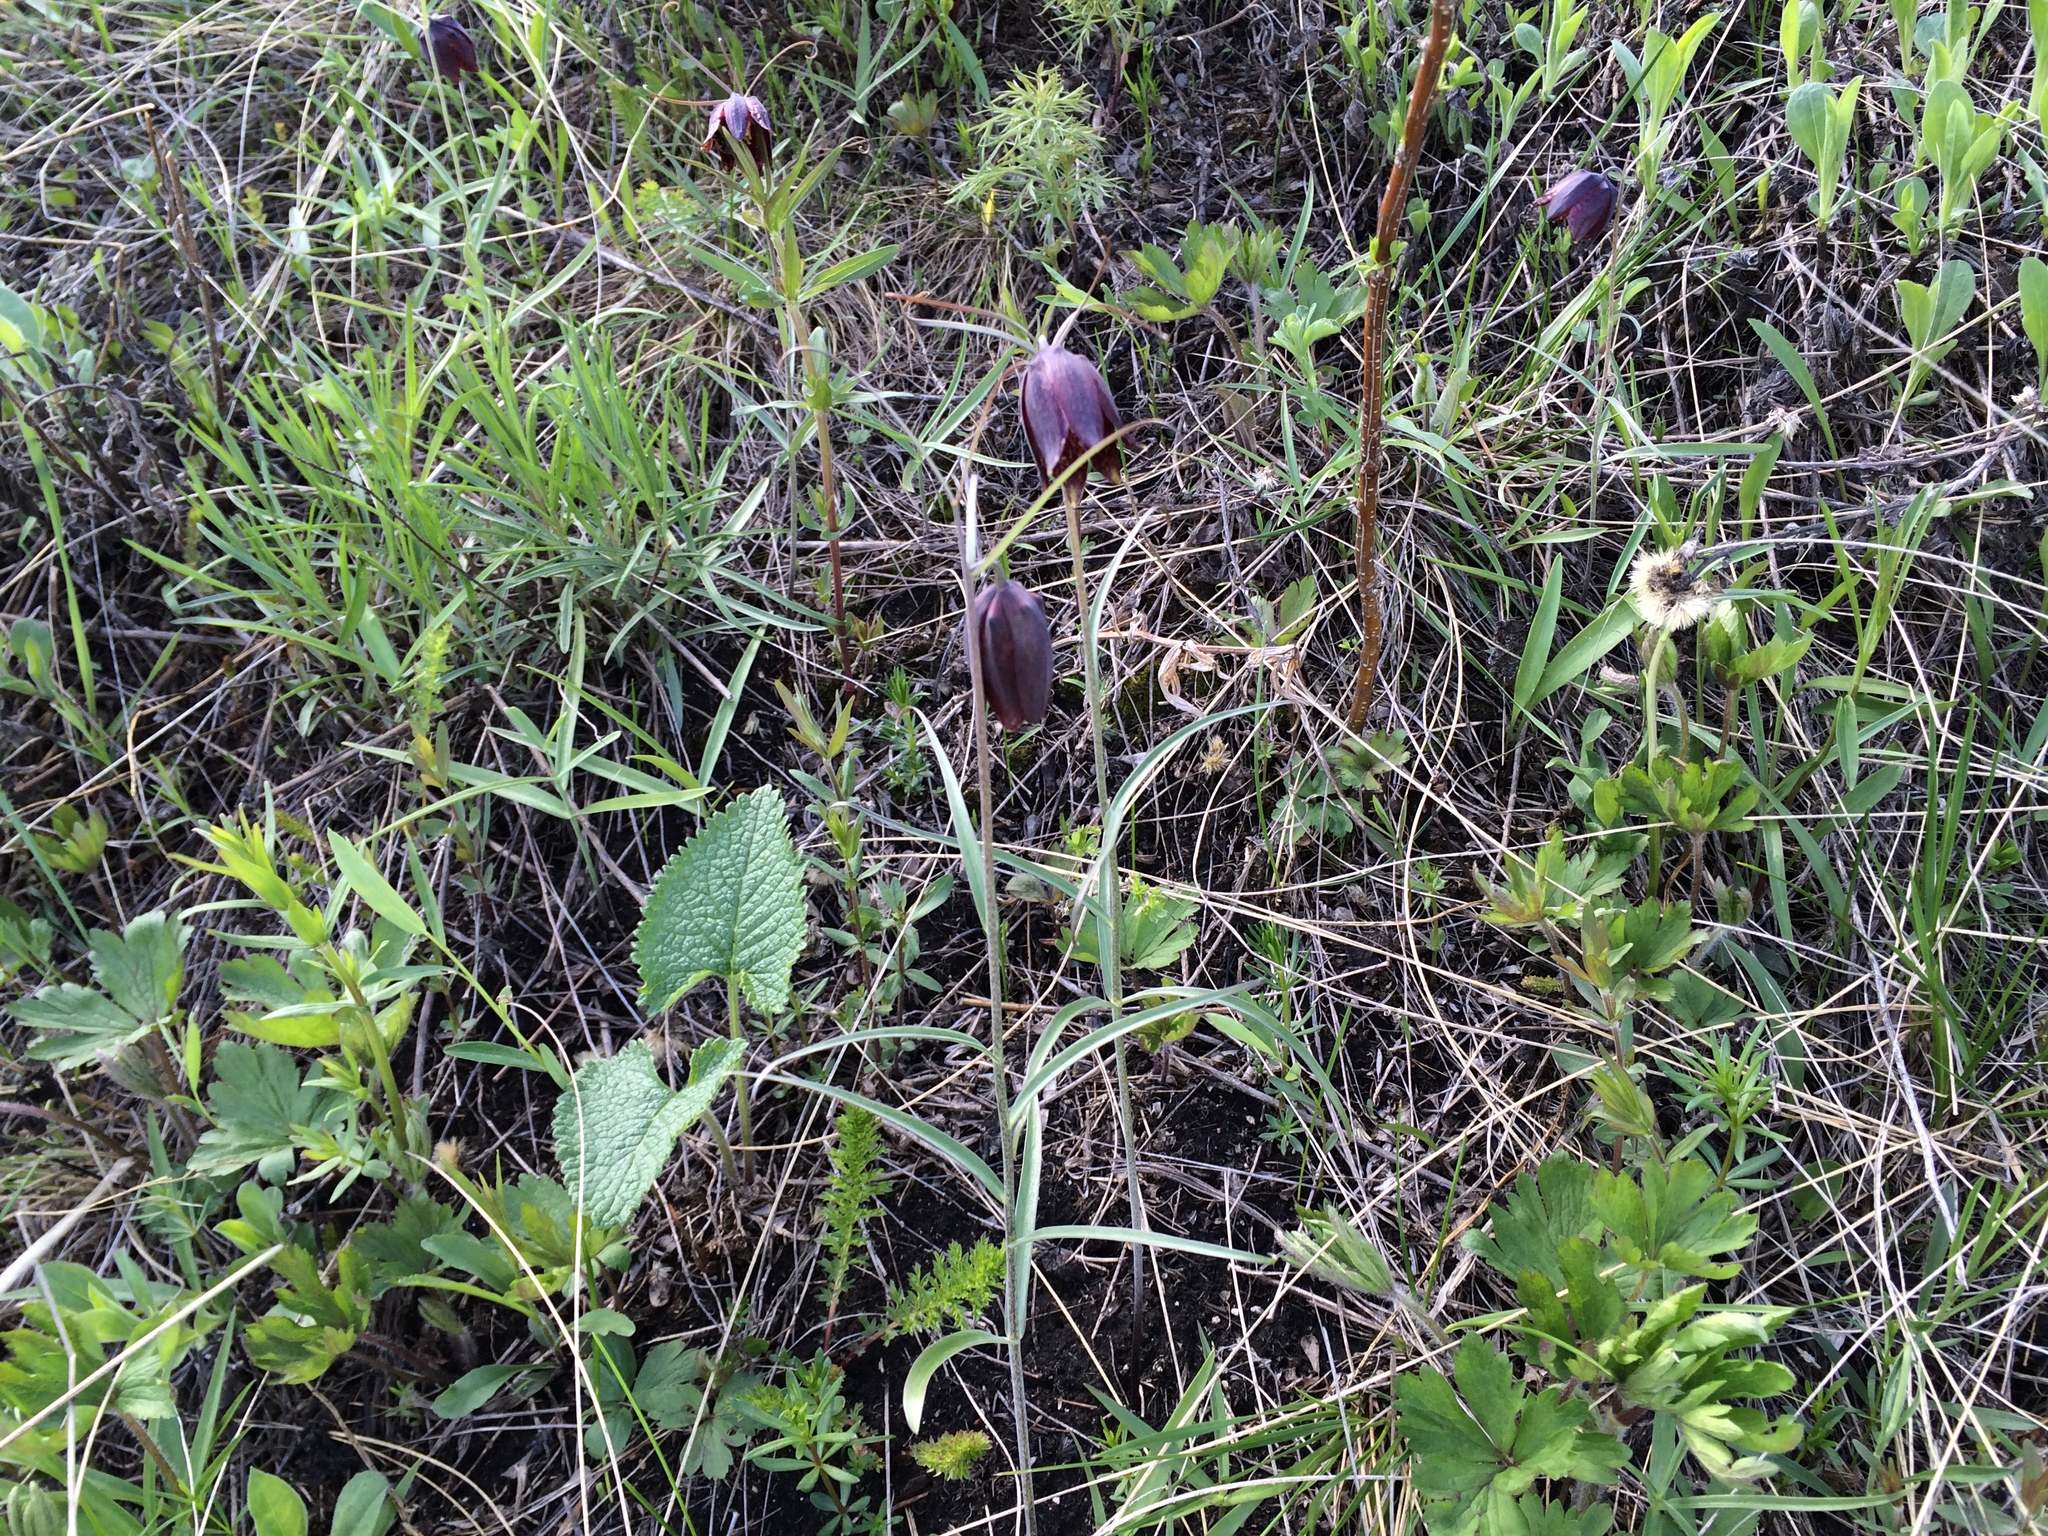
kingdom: Plantae
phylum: Tracheophyta
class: Liliopsida
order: Liliales
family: Liliaceae
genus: Fritillaria
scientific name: Fritillaria ruthenica
